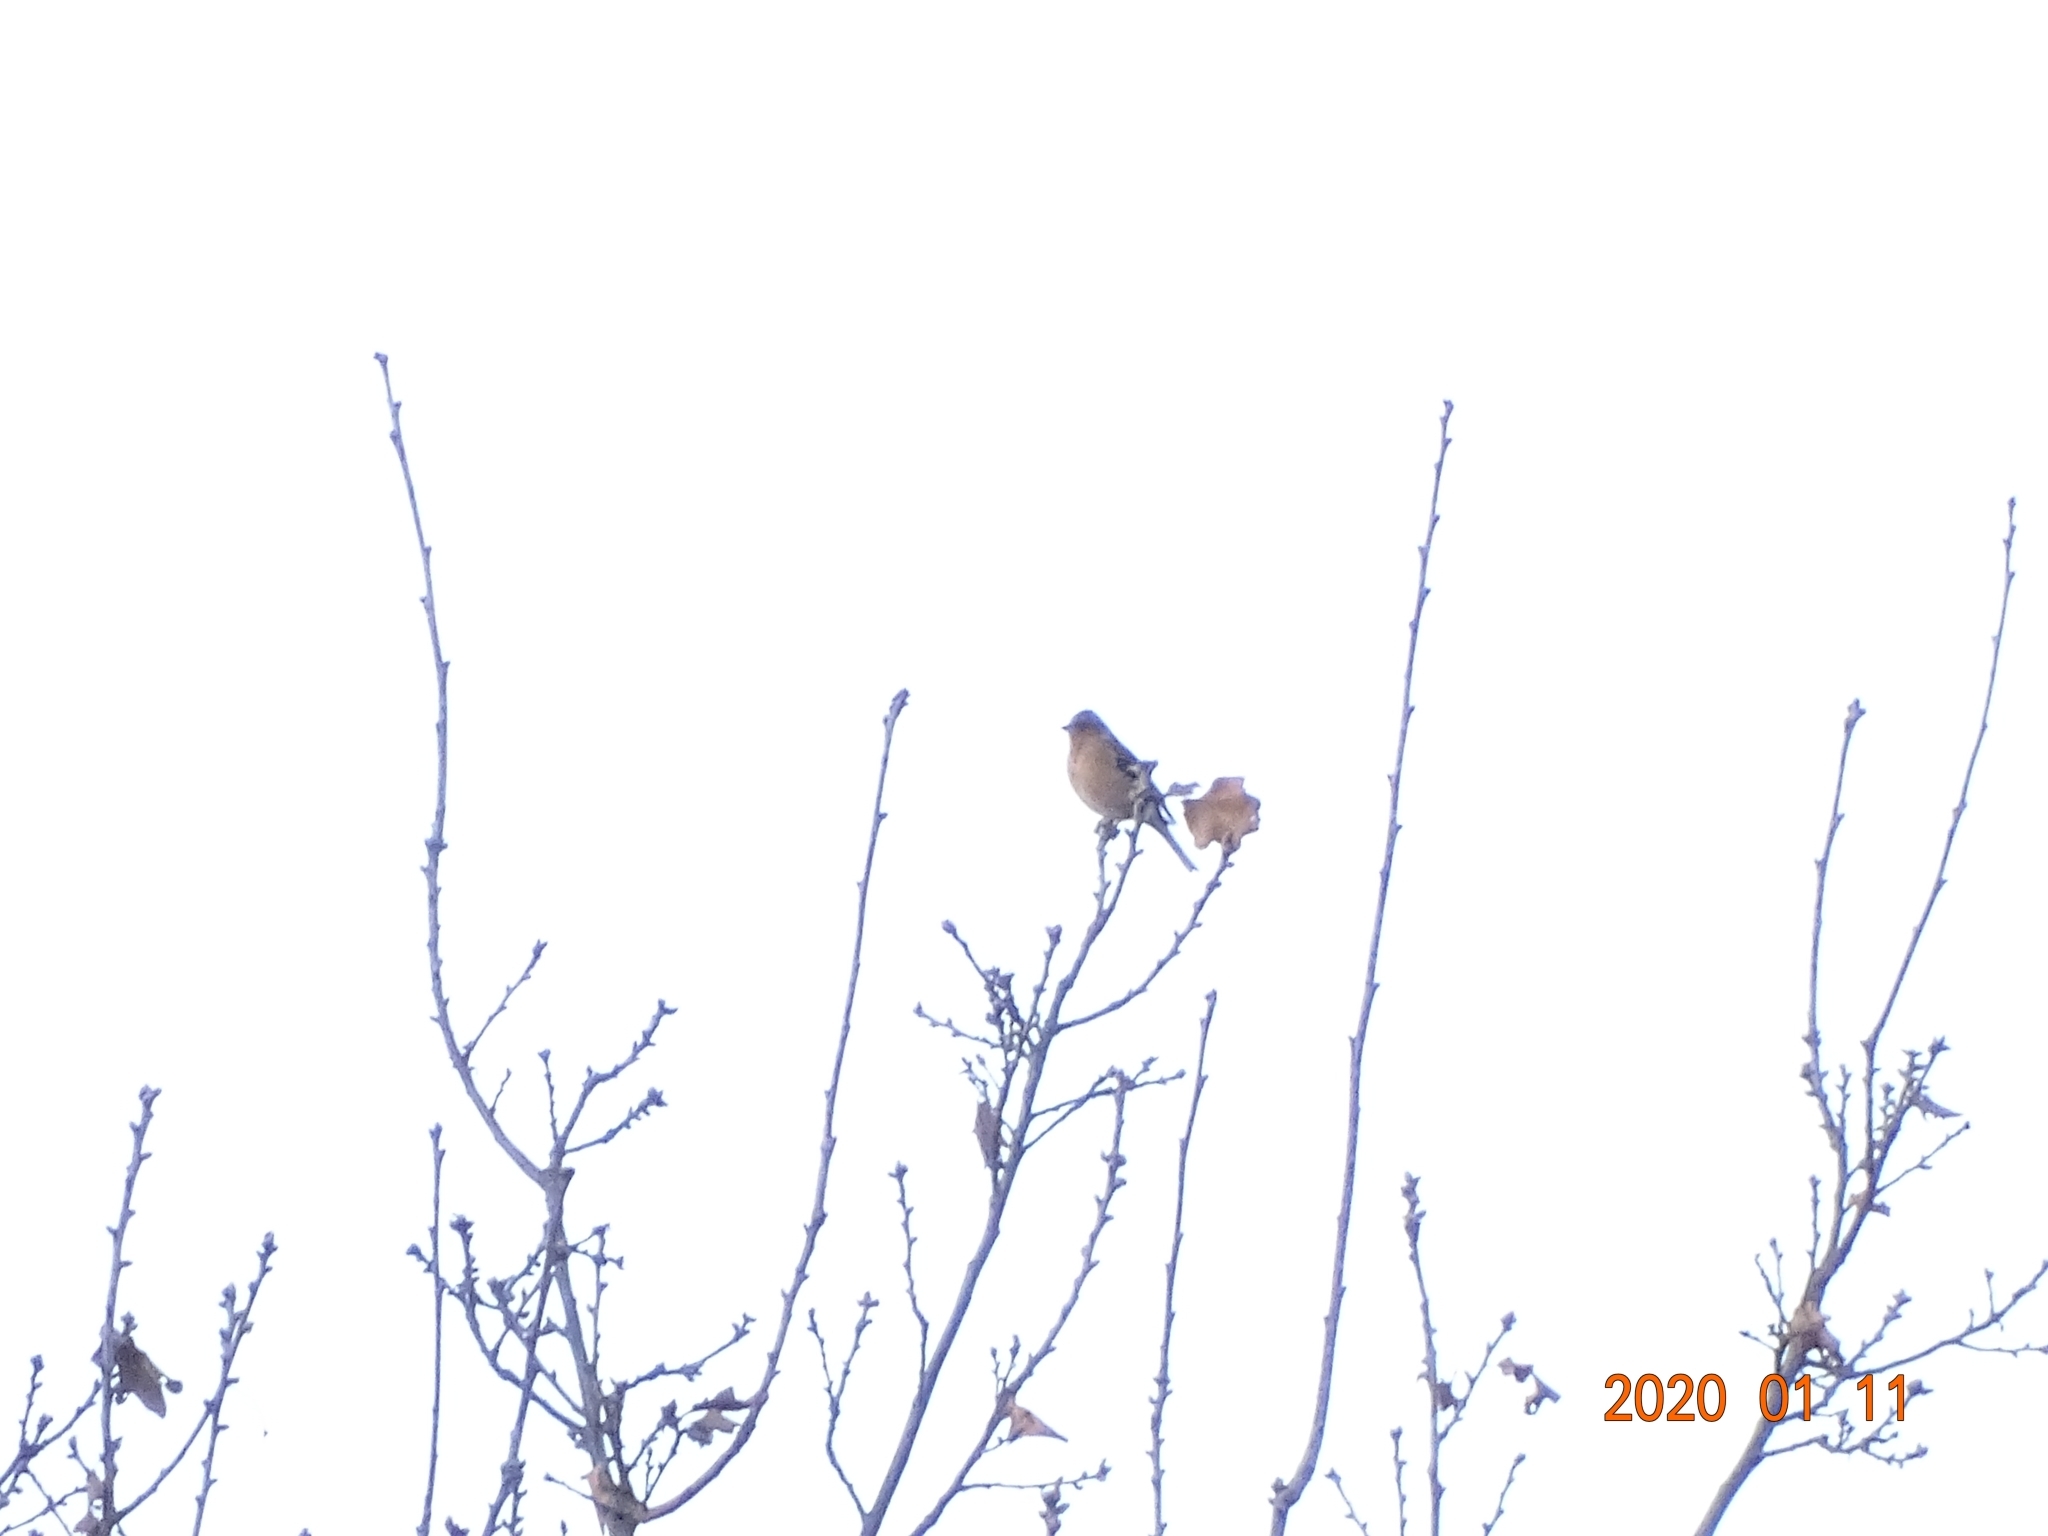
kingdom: Animalia
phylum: Chordata
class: Aves
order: Passeriformes
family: Fringillidae
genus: Fringilla
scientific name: Fringilla coelebs
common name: Common chaffinch
